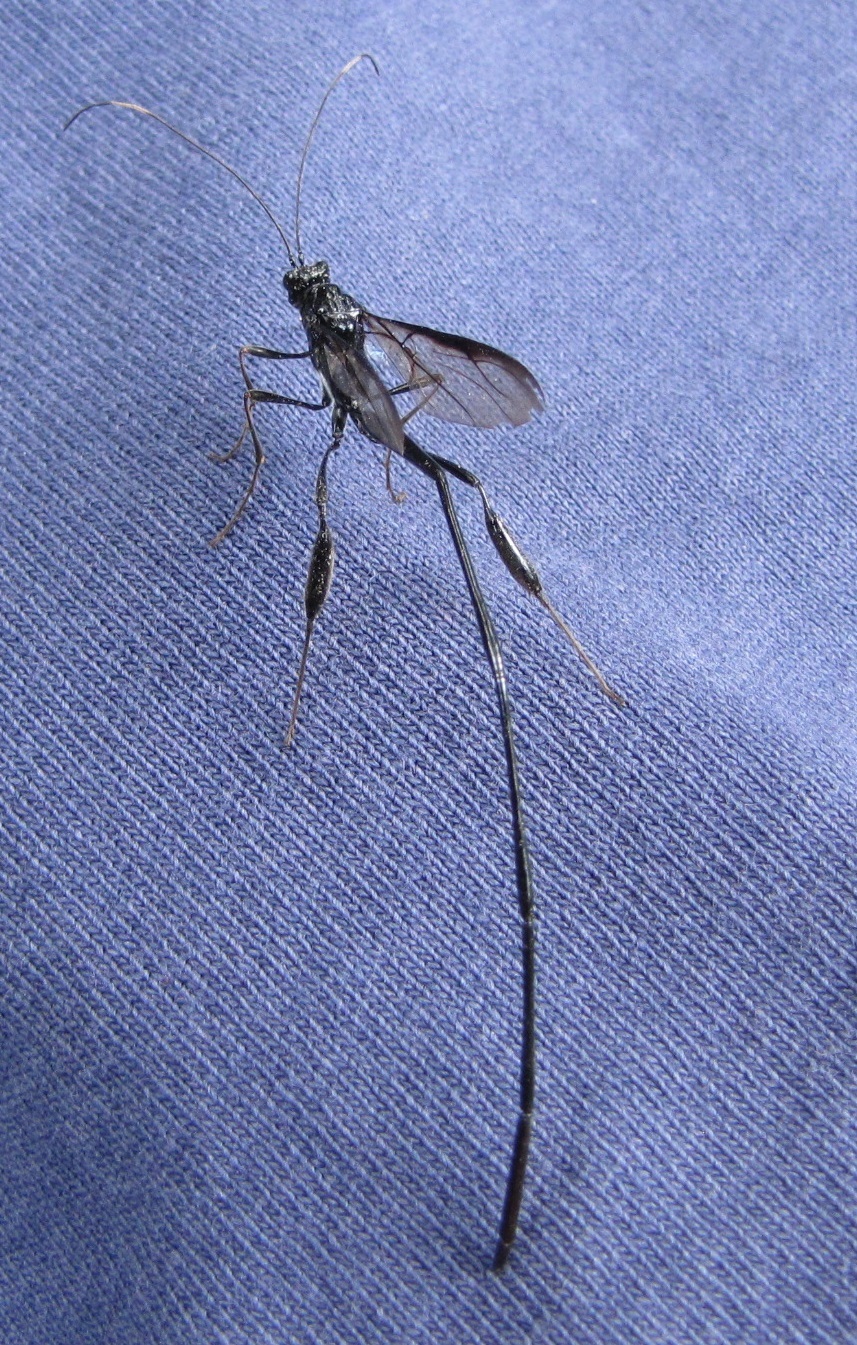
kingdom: Animalia
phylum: Arthropoda
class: Insecta
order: Hymenoptera
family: Pelecinidae
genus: Pelecinus
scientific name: Pelecinus polyturator
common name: American pelecinid wasp
